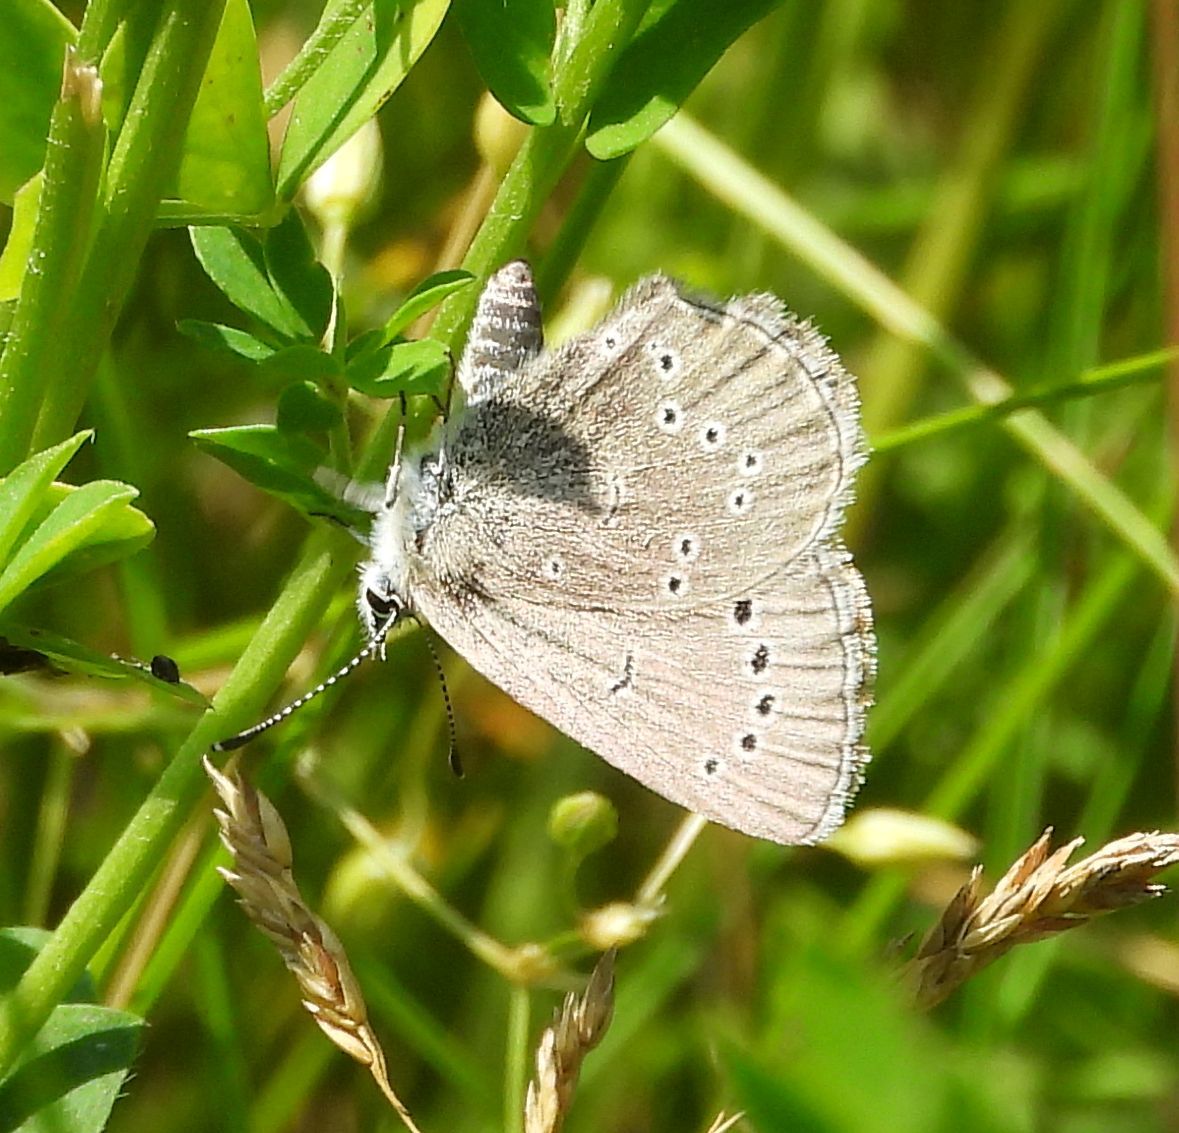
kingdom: Animalia
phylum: Arthropoda
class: Insecta
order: Lepidoptera
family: Lycaenidae
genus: Glaucopsyche
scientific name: Glaucopsyche lygdamus
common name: Silvery blue
